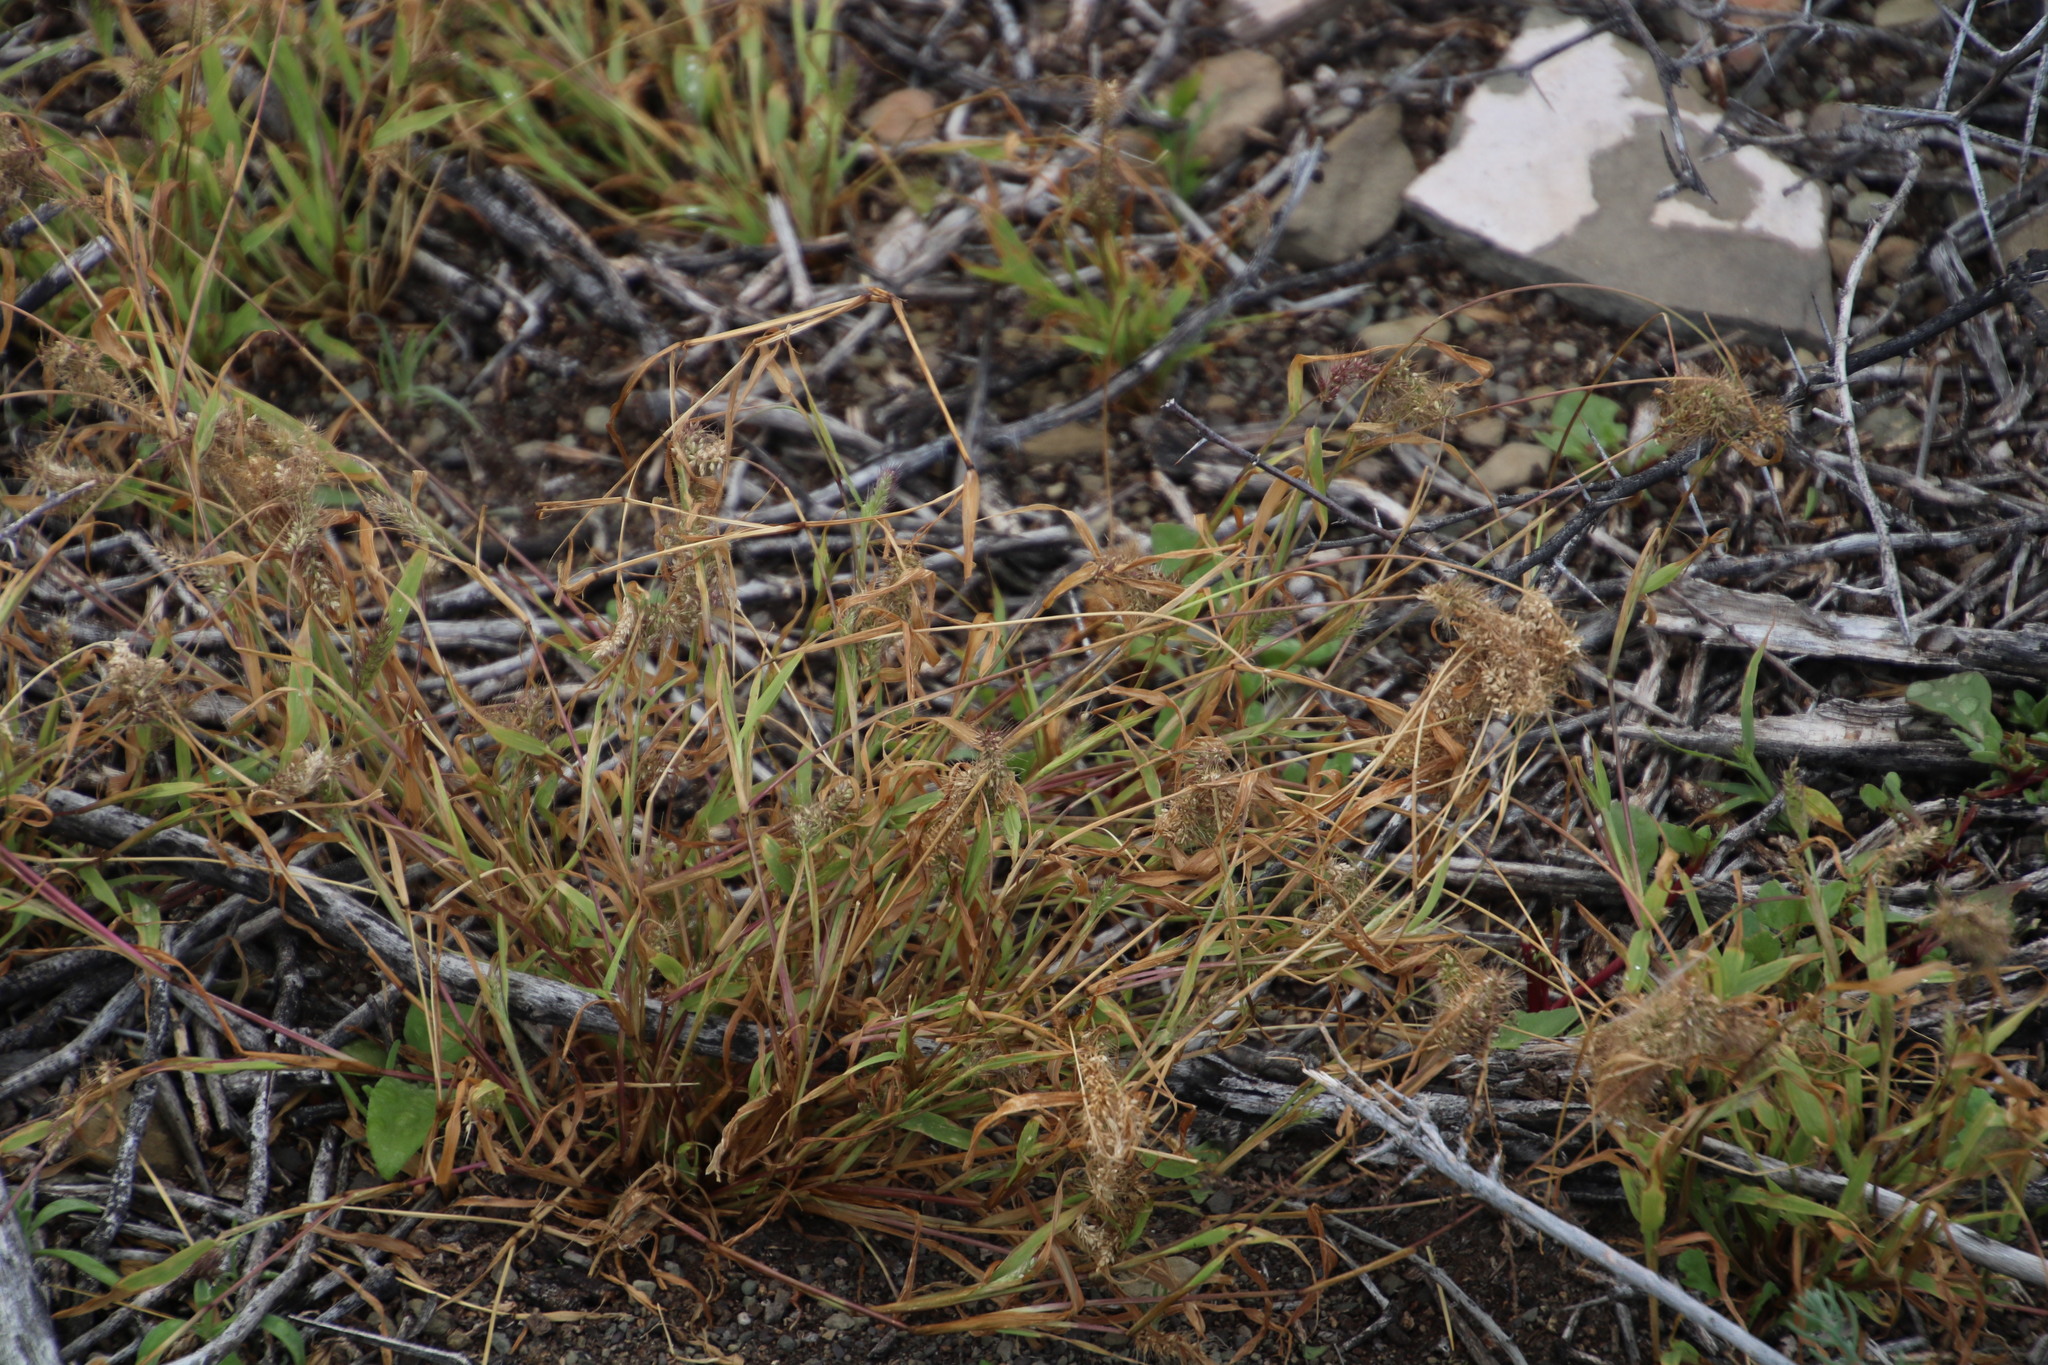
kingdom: Plantae
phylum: Tracheophyta
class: Liliopsida
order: Poales
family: Poaceae
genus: Setaria
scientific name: Setaria verticillata
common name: Hooked bristlegrass
